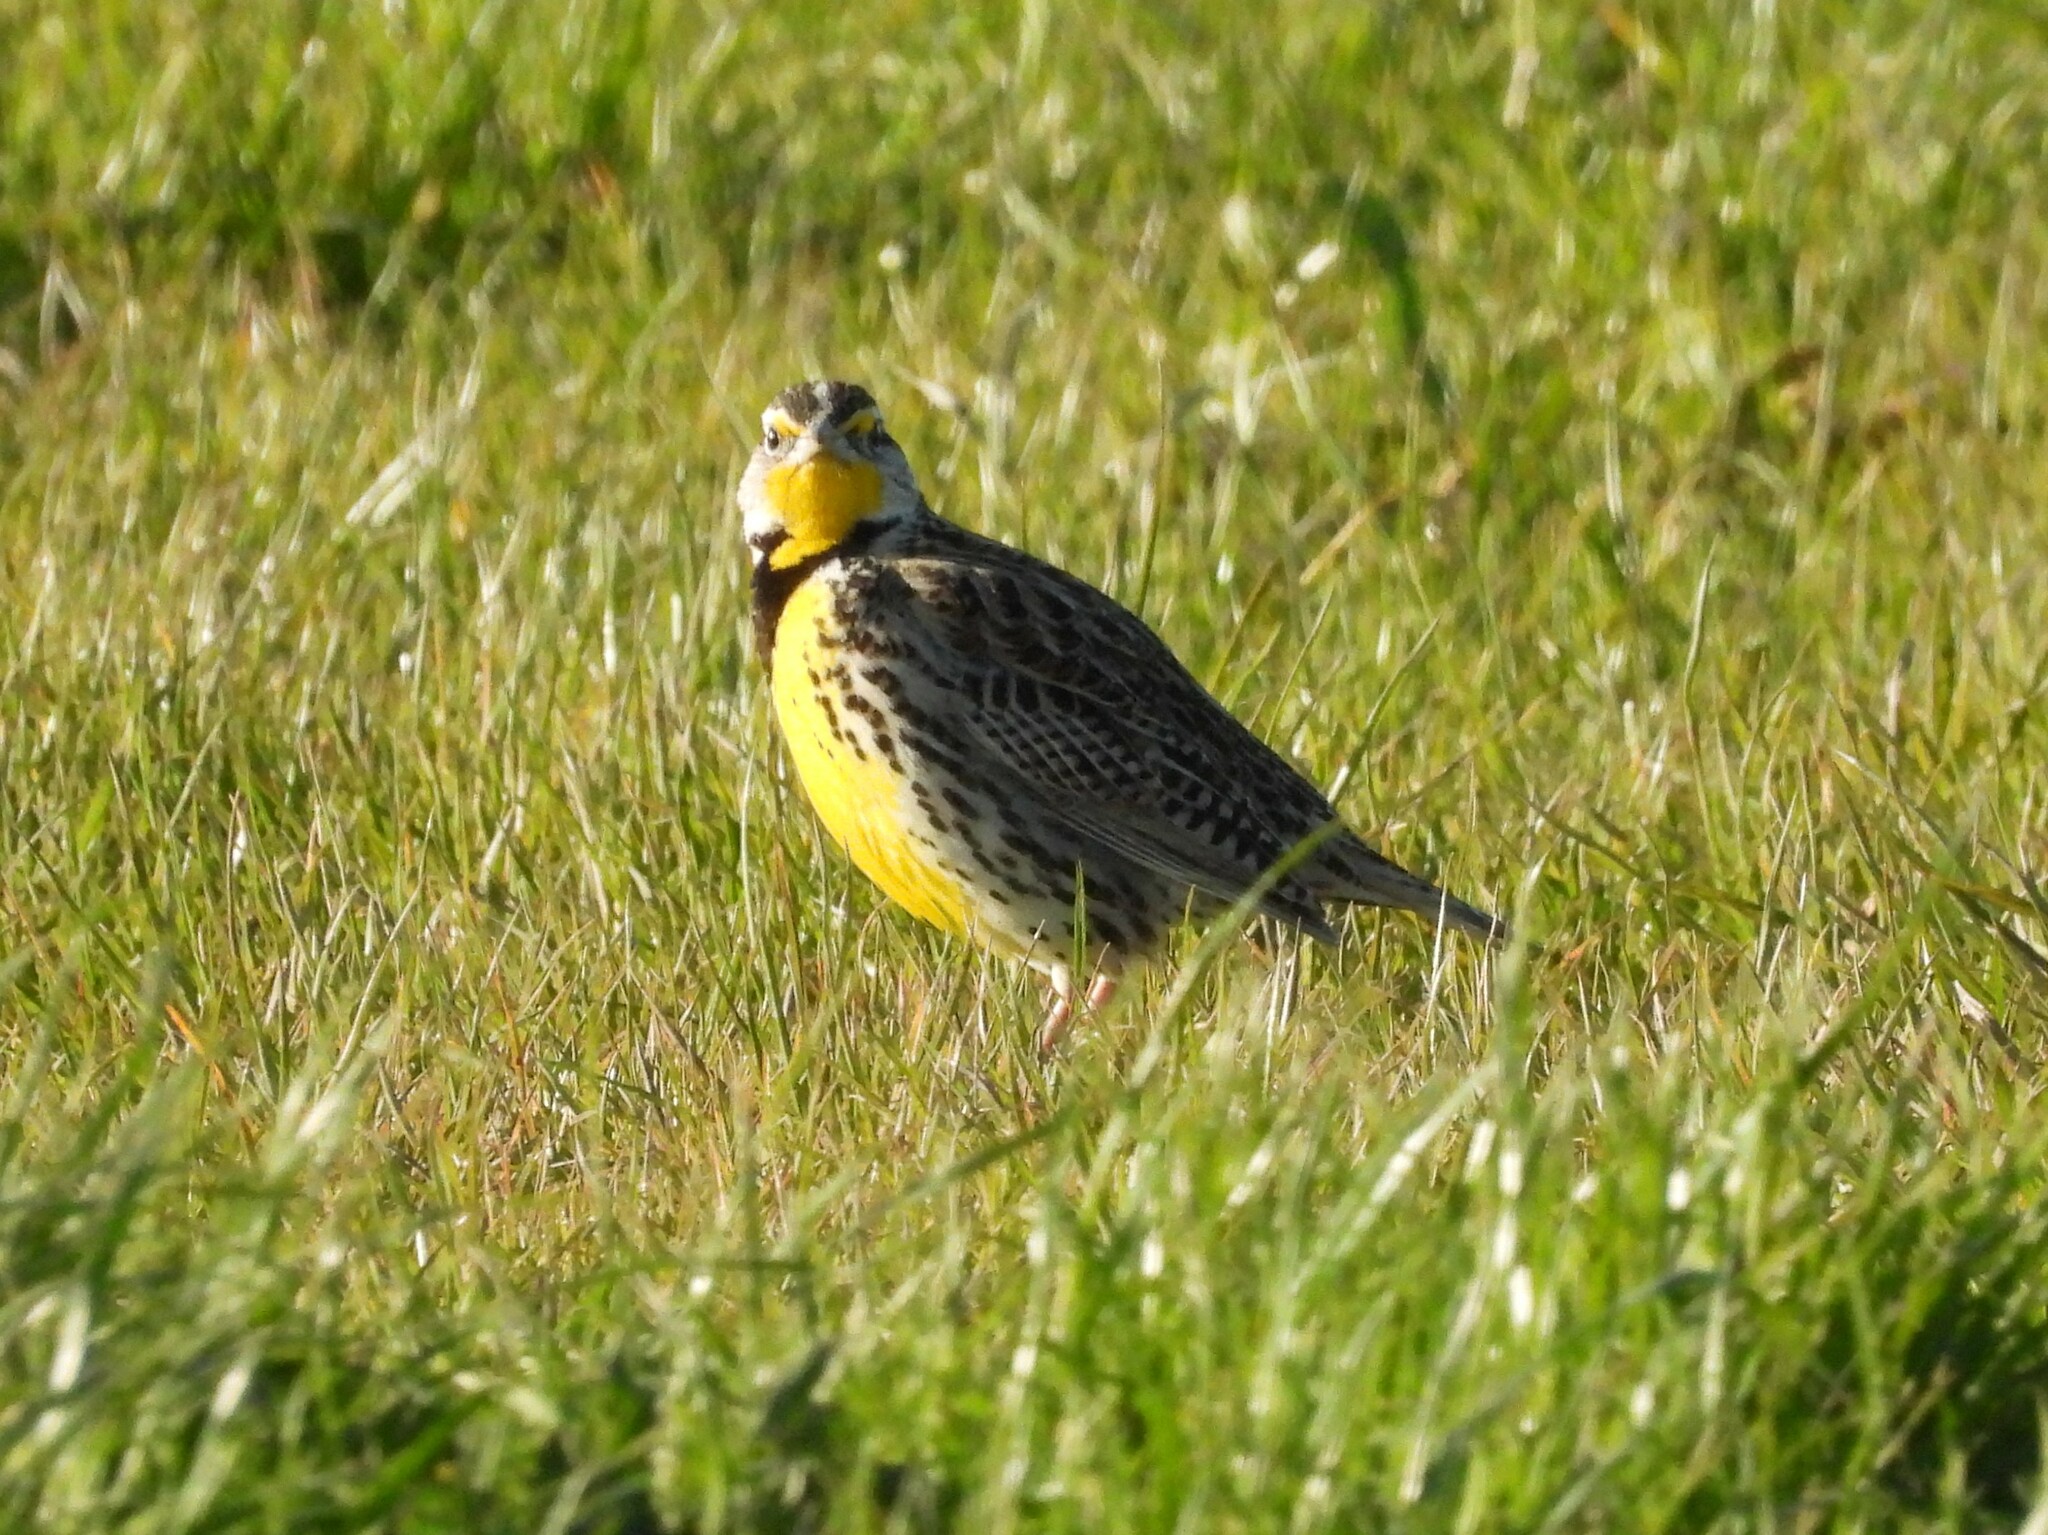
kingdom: Animalia
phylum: Chordata
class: Aves
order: Passeriformes
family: Icteridae
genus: Sturnella
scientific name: Sturnella neglecta
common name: Western meadowlark
